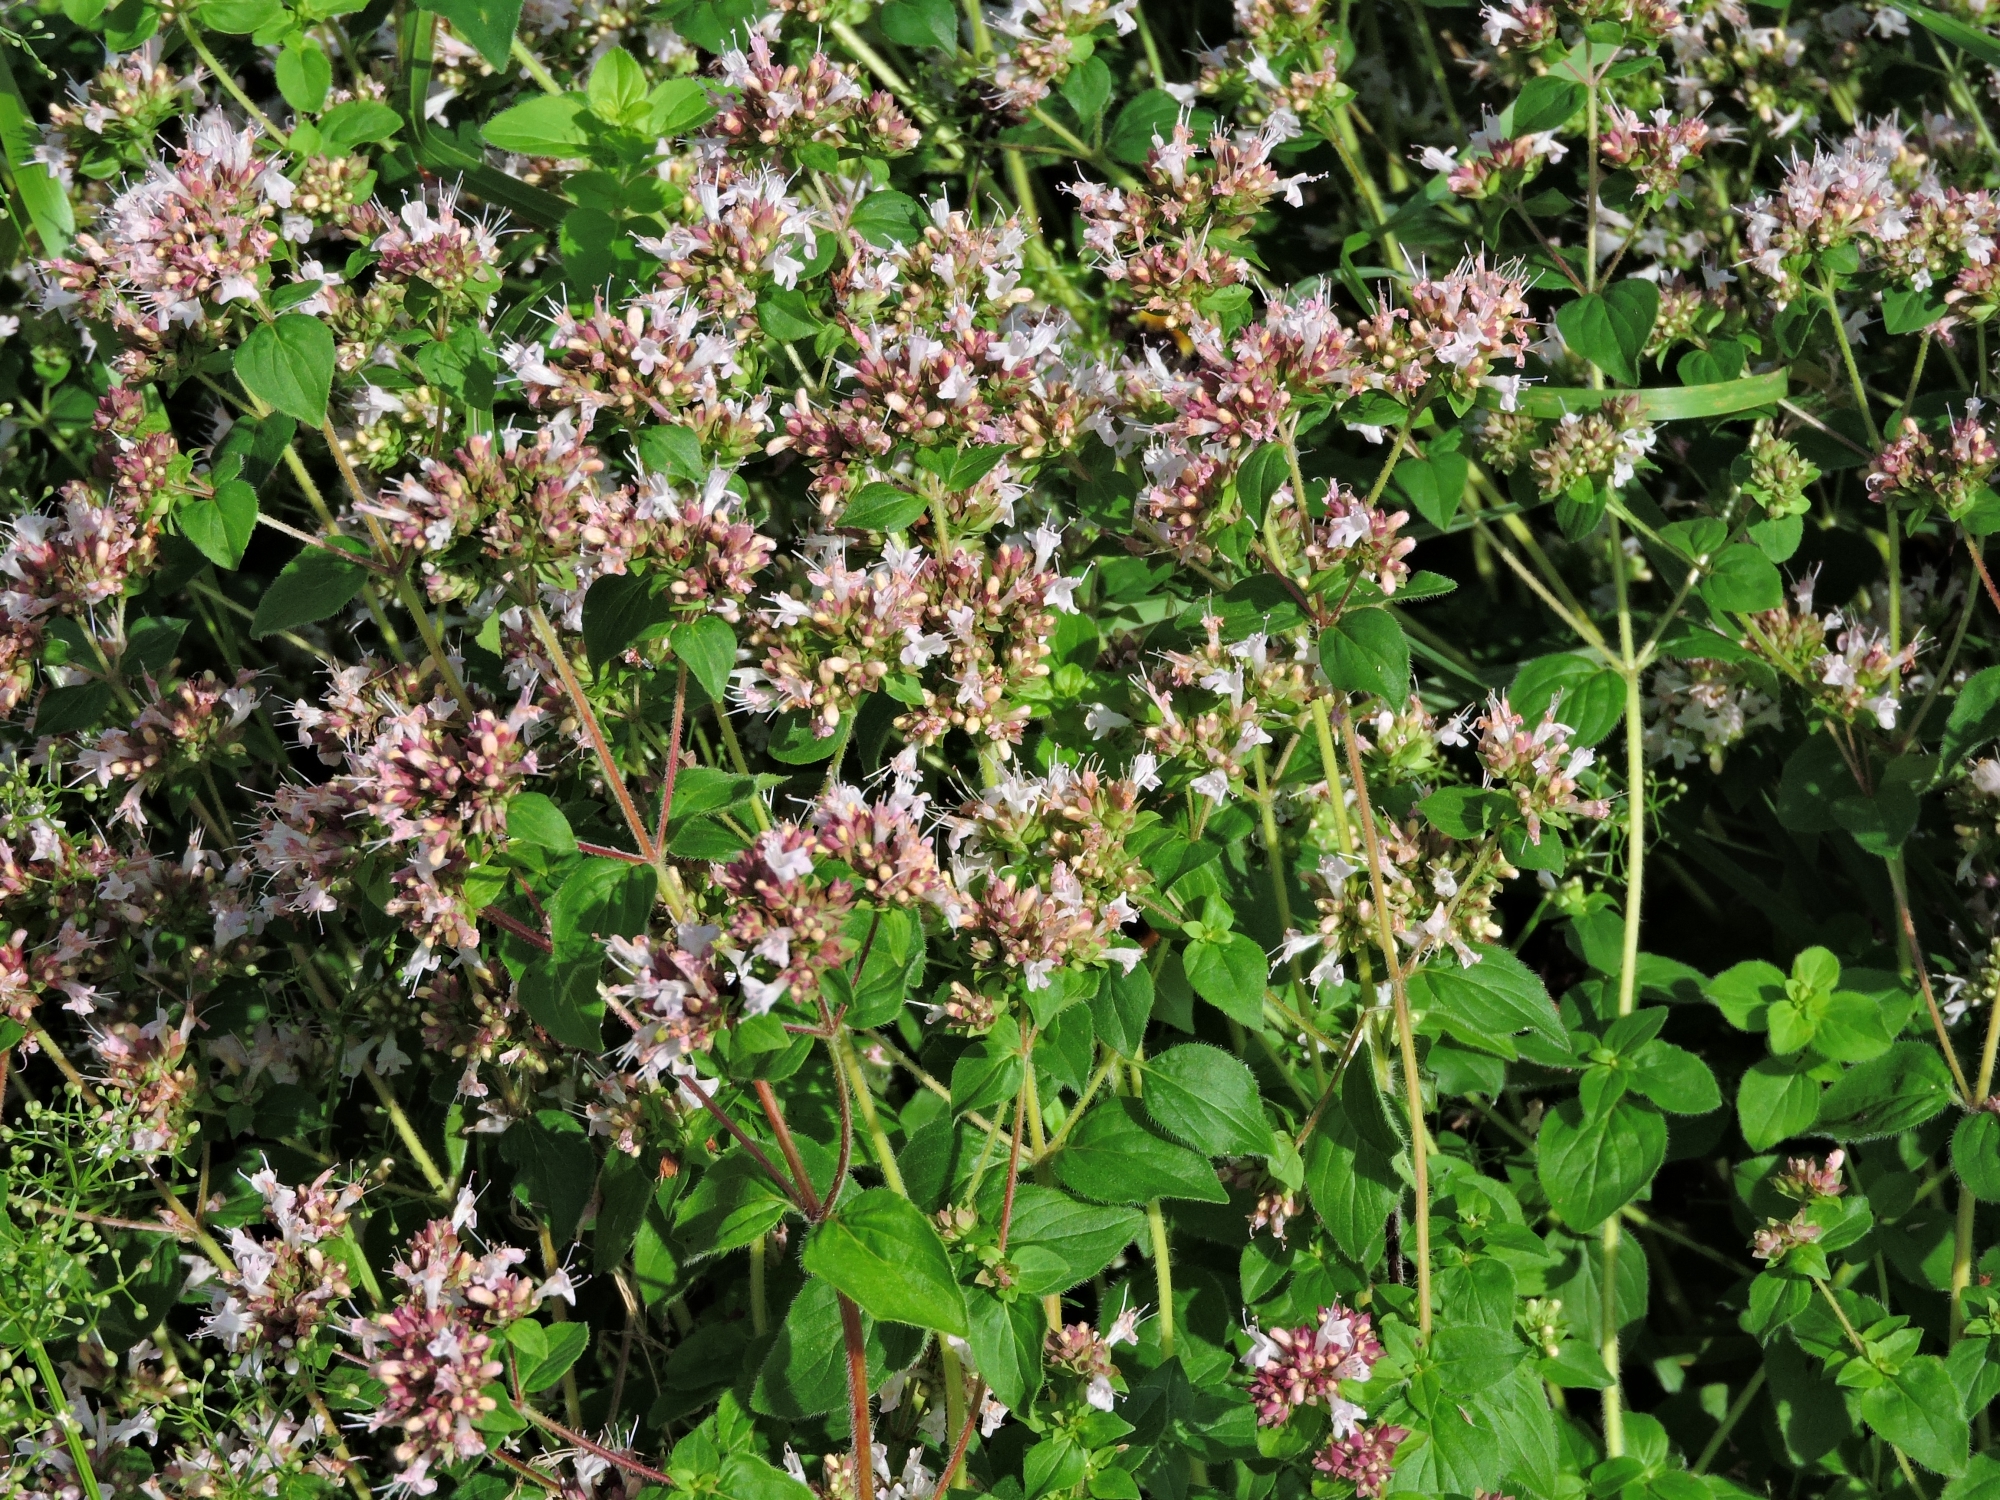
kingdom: Plantae
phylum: Tracheophyta
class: Magnoliopsida
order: Lamiales
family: Lamiaceae
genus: Origanum
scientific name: Origanum vulgare
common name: Wild marjoram
